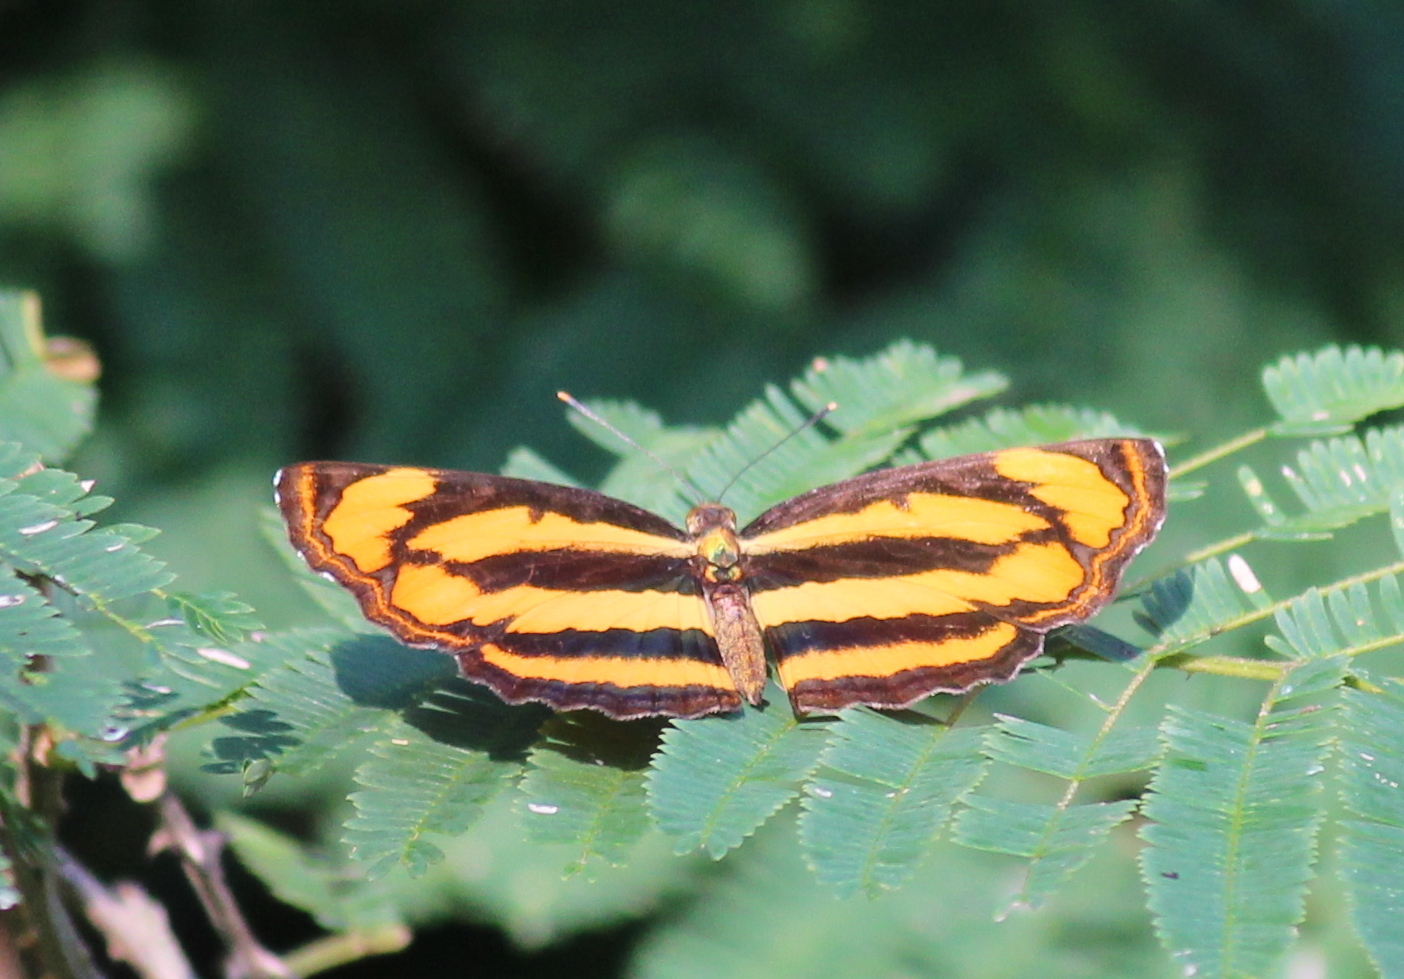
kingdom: Animalia
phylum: Arthropoda
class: Insecta
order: Lepidoptera
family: Nymphalidae
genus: Pantoporia
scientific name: Pantoporia hordonia
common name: Common lascar
